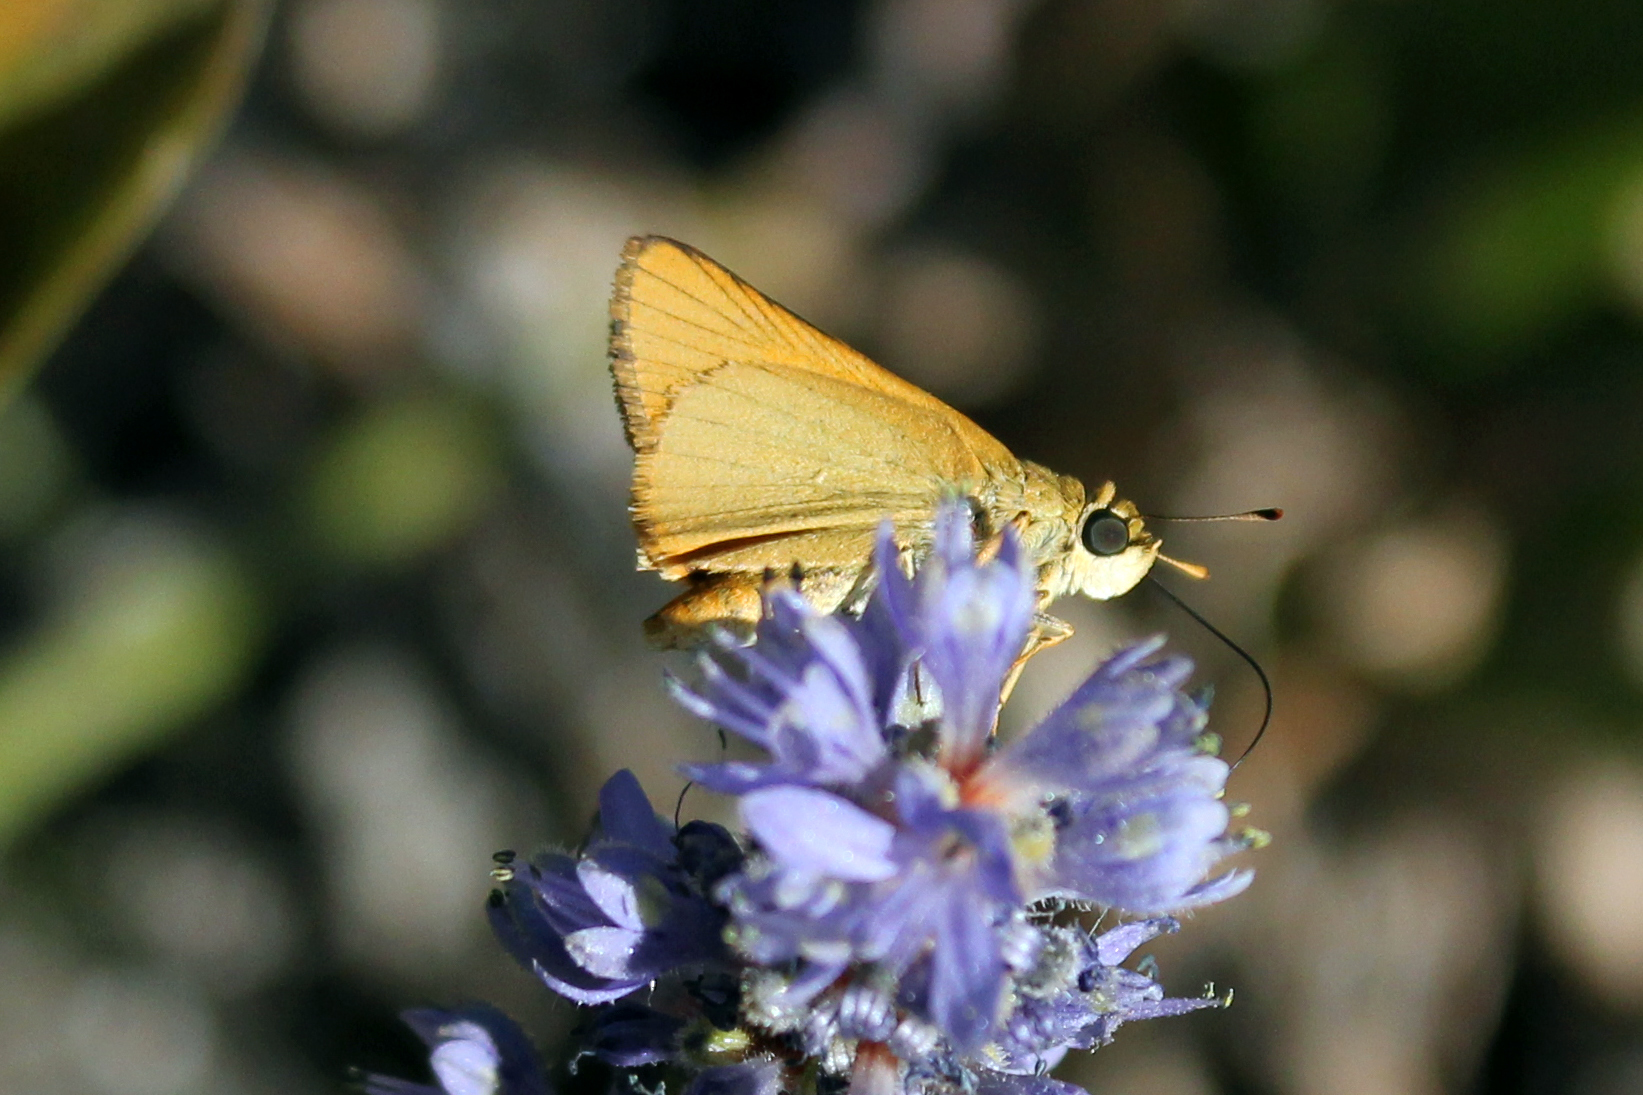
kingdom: Animalia
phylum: Arthropoda
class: Insecta
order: Lepidoptera
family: Hesperiidae
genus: Atrytone
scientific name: Atrytone delaware
